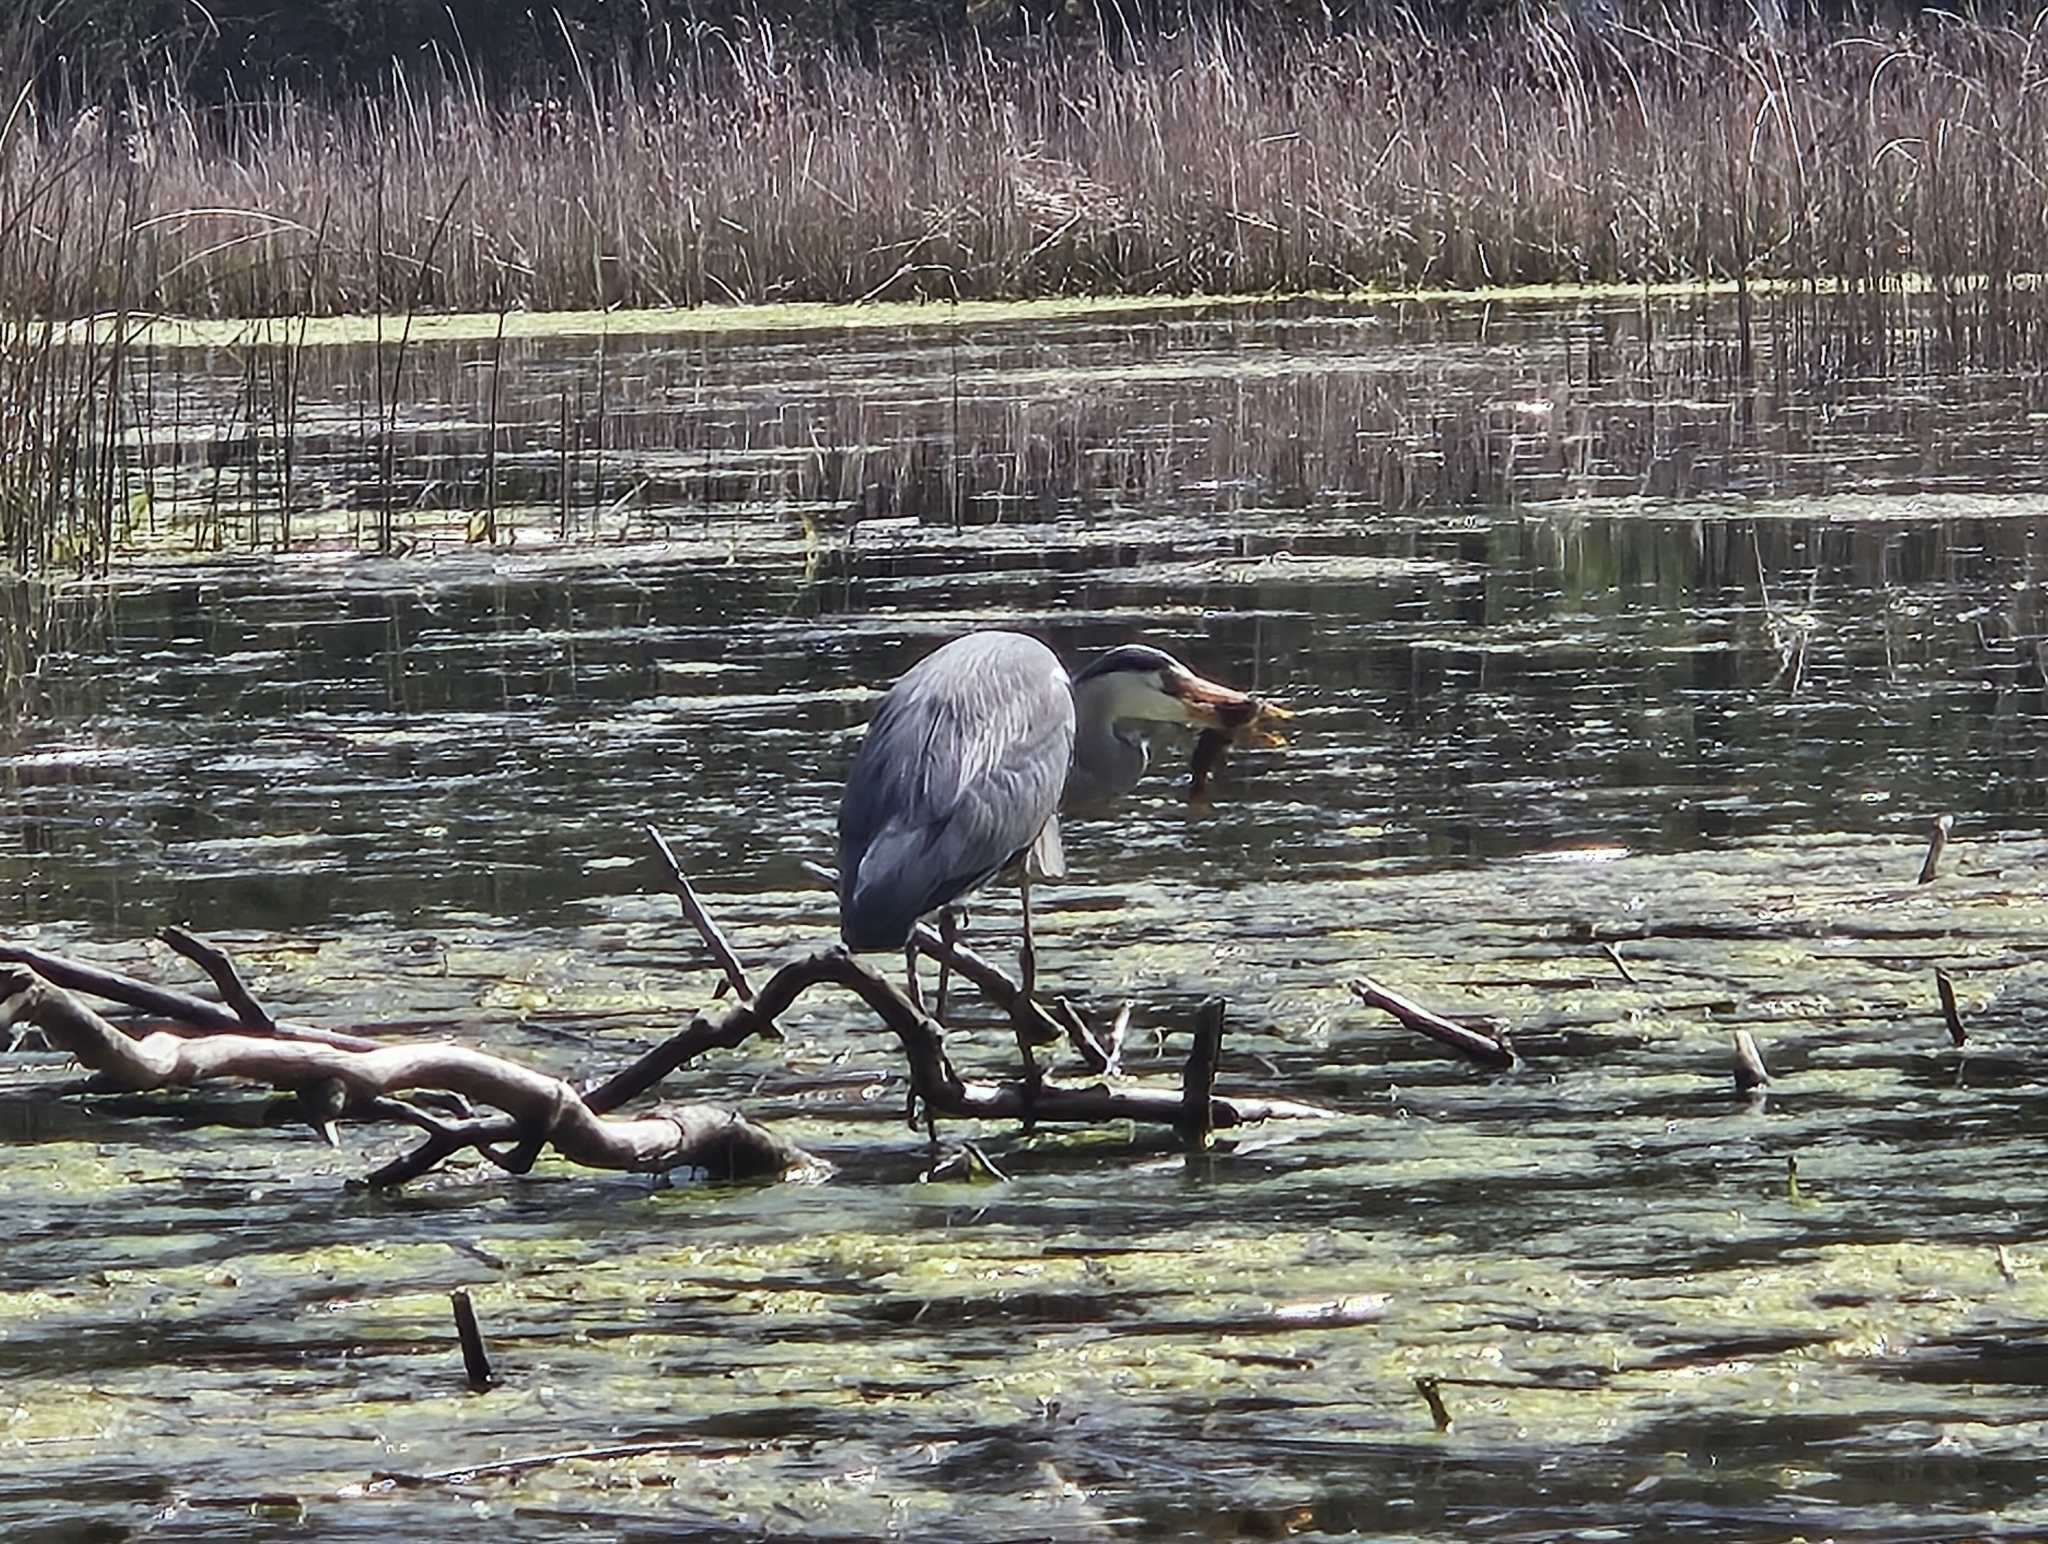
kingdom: Animalia
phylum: Chordata
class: Aves
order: Pelecaniformes
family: Ardeidae
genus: Ardea
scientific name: Ardea cinerea
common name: Grey heron
